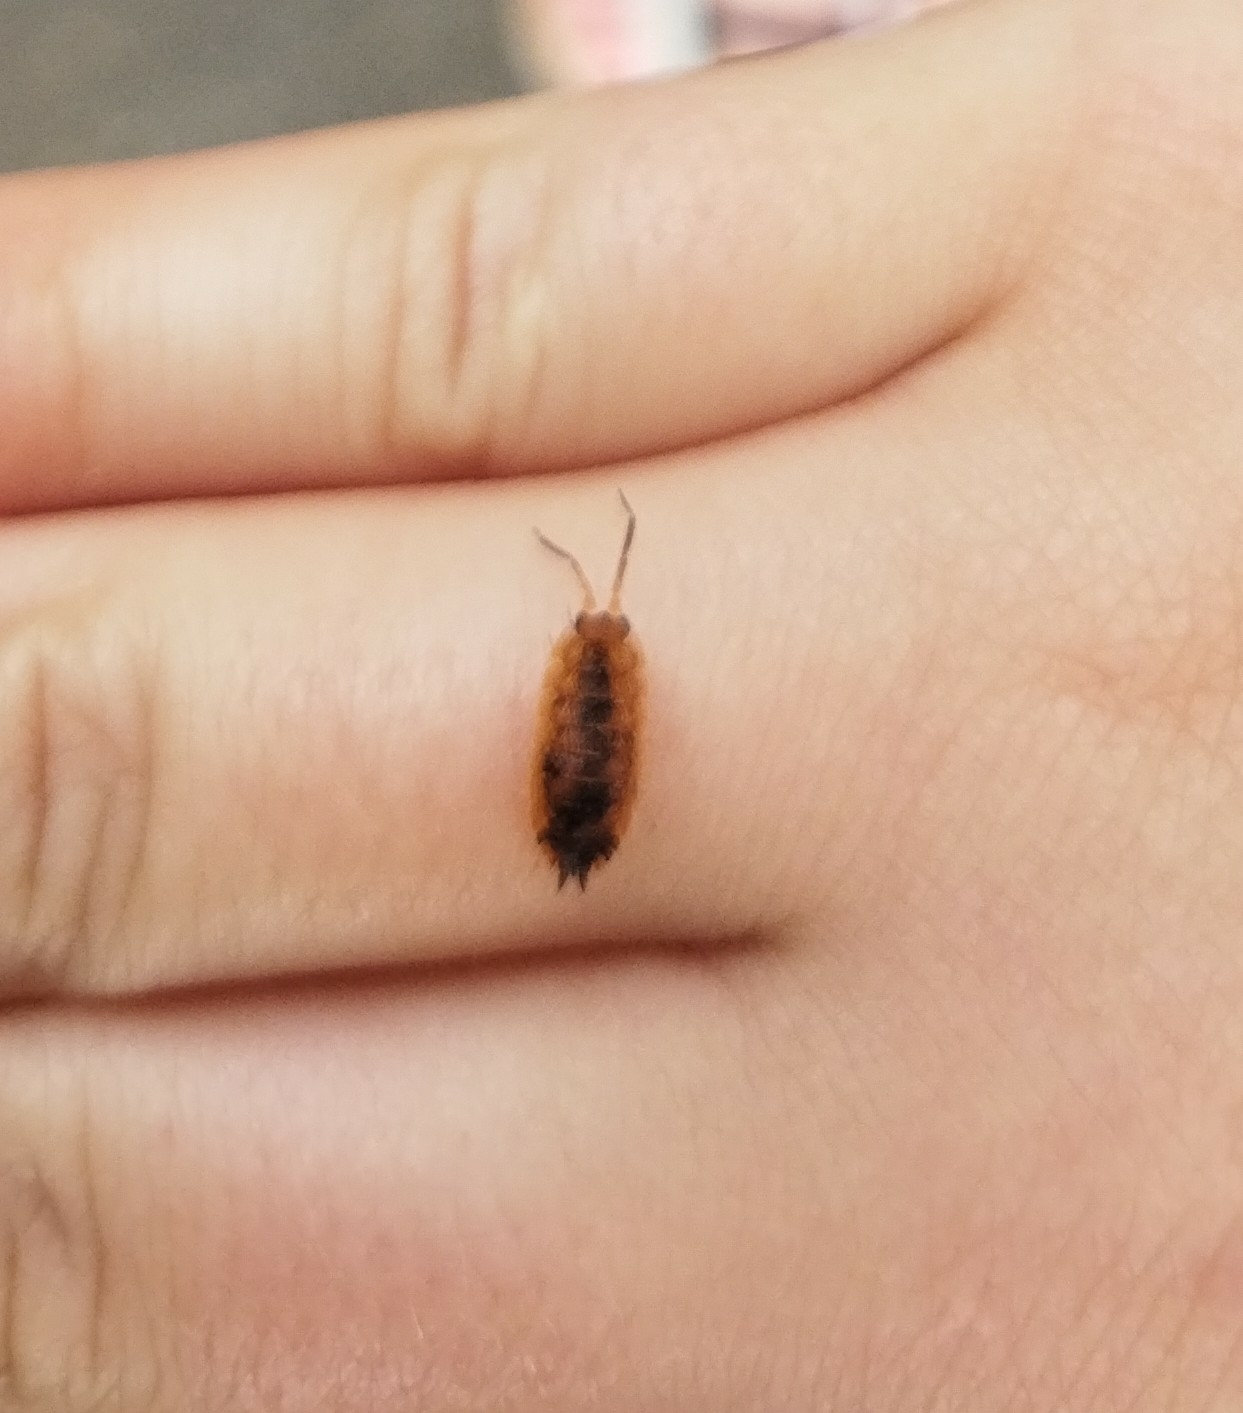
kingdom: Animalia
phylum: Arthropoda
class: Malacostraca
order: Isopoda
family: Porcellionidae
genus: Porcellio
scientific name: Porcellio scaber
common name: Common rough woodlouse
